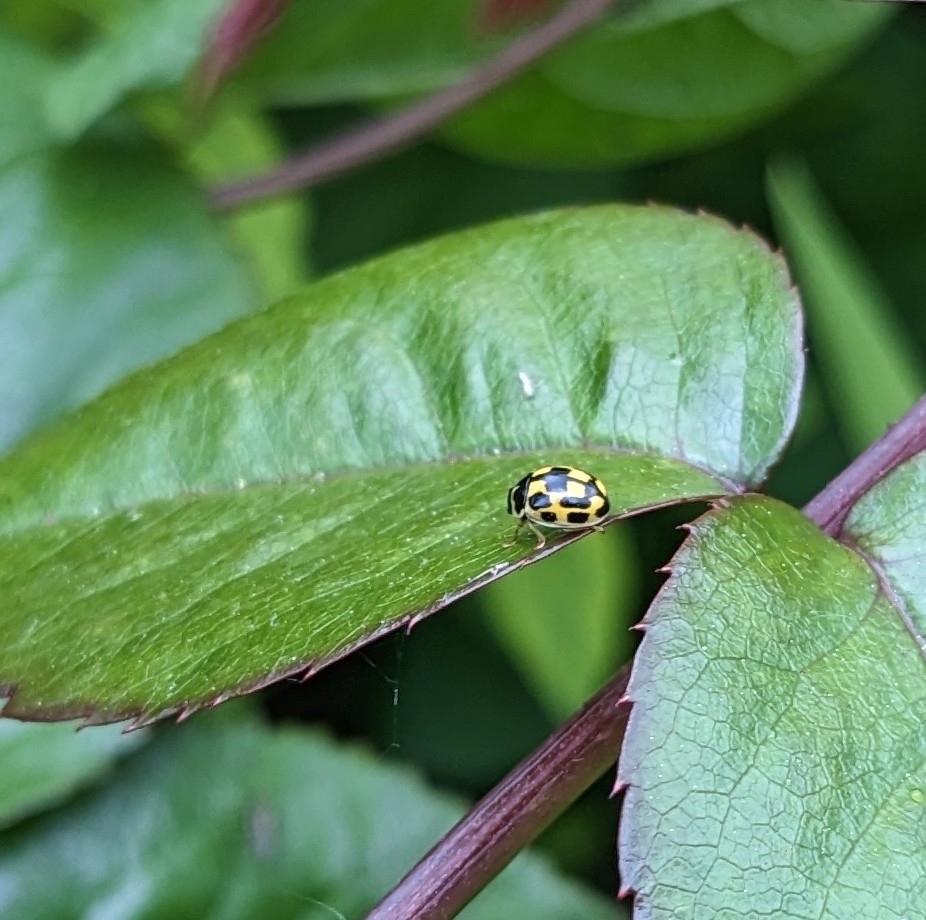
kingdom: Animalia
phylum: Arthropoda
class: Insecta
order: Coleoptera
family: Coccinellidae
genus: Propylaea
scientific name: Propylaea quatuordecimpunctata
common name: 14-spotted ladybird beetle
